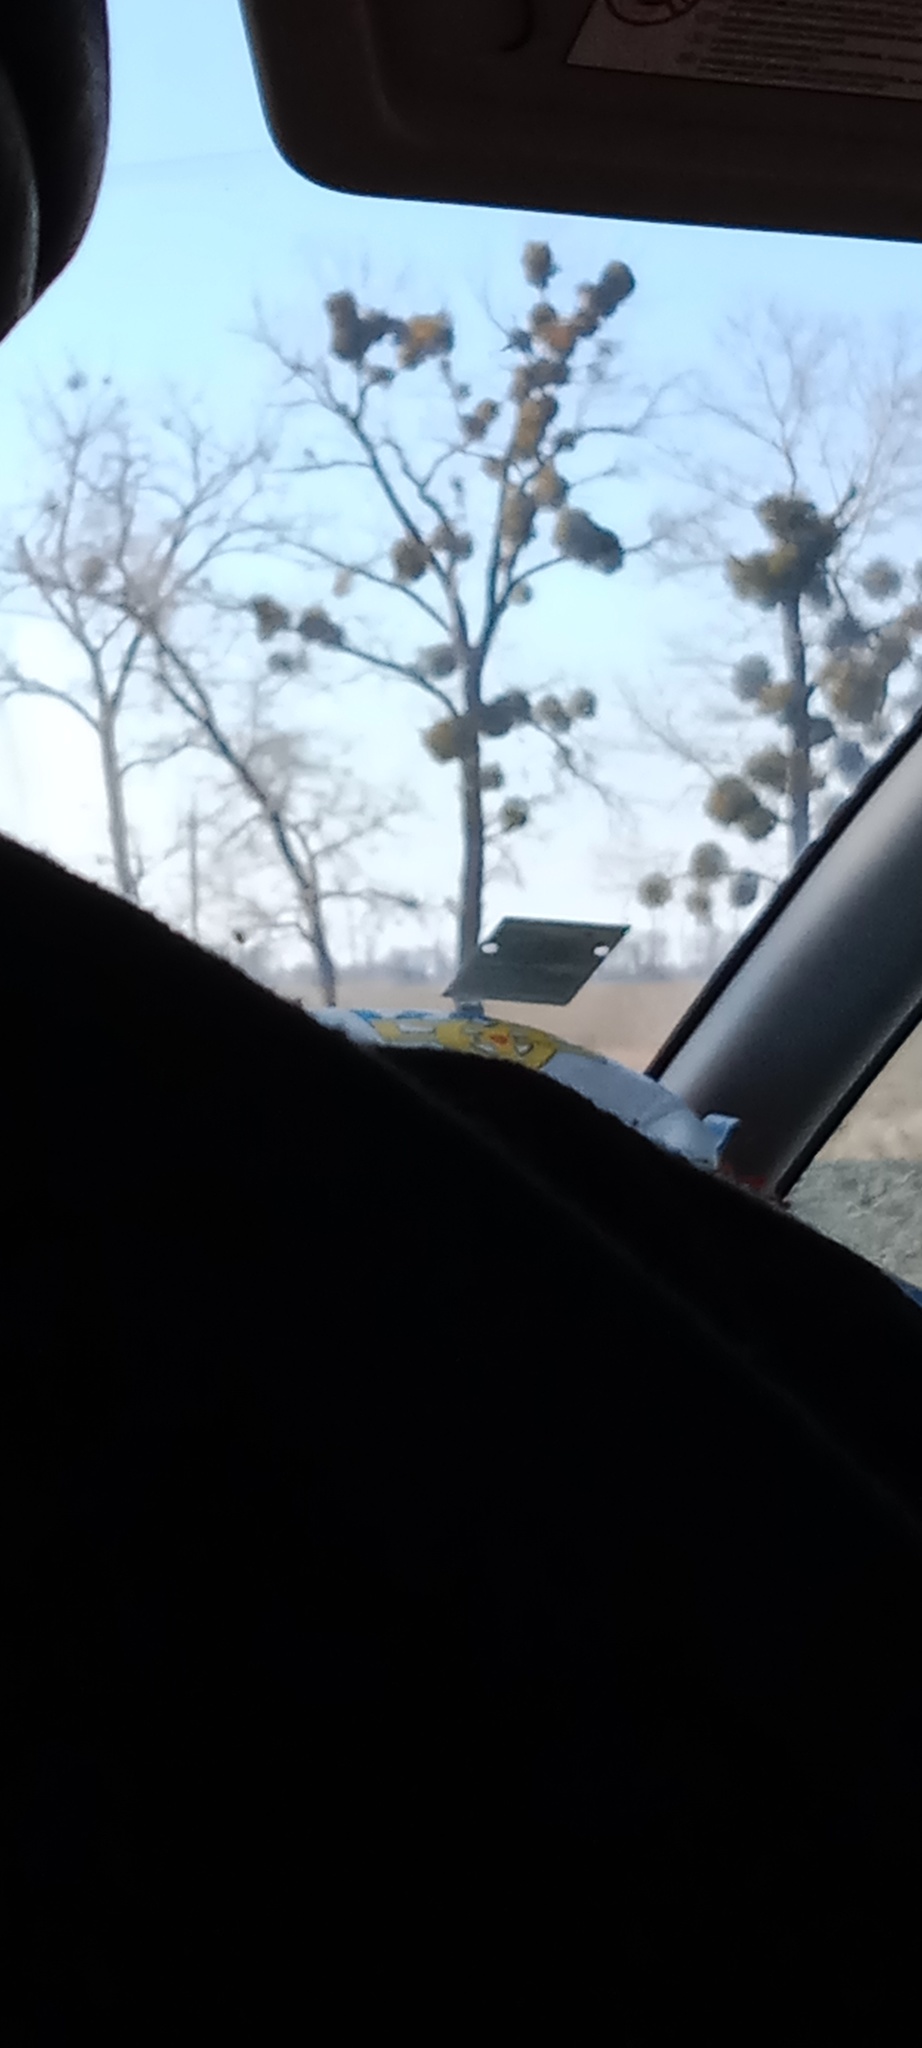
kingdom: Plantae
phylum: Tracheophyta
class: Magnoliopsida
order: Santalales
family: Viscaceae
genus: Viscum
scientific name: Viscum album
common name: Mistletoe
